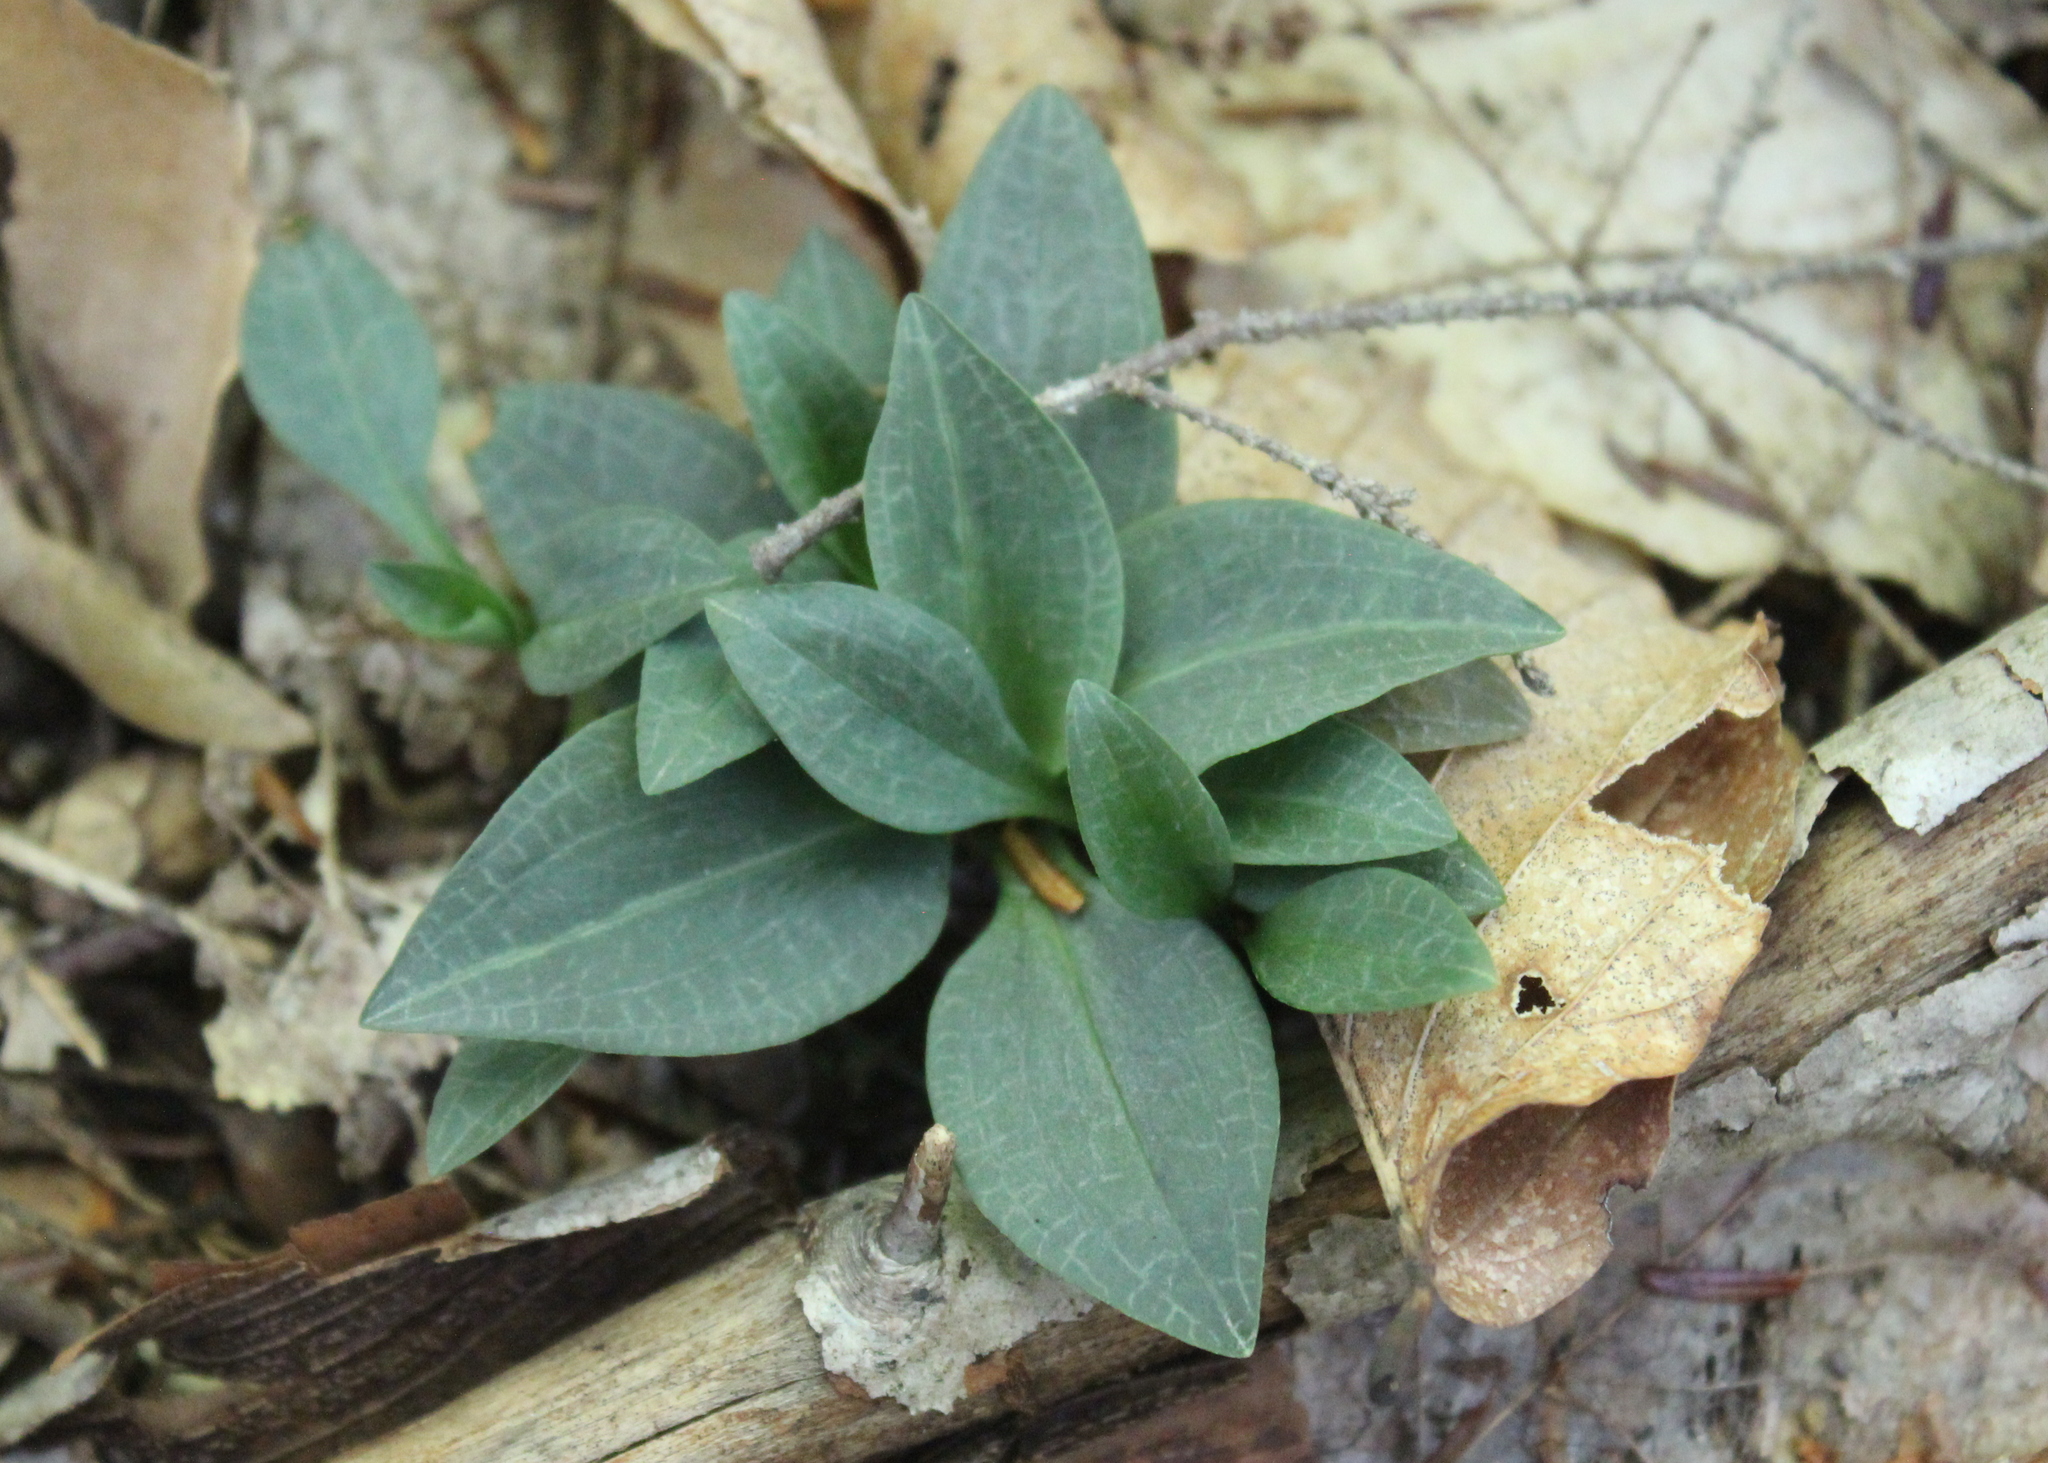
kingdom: Plantae
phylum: Tracheophyta
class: Liliopsida
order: Asparagales
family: Orchidaceae
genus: Goodyera
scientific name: Goodyera tesselata
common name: Checkered rattlesnake-plantain
